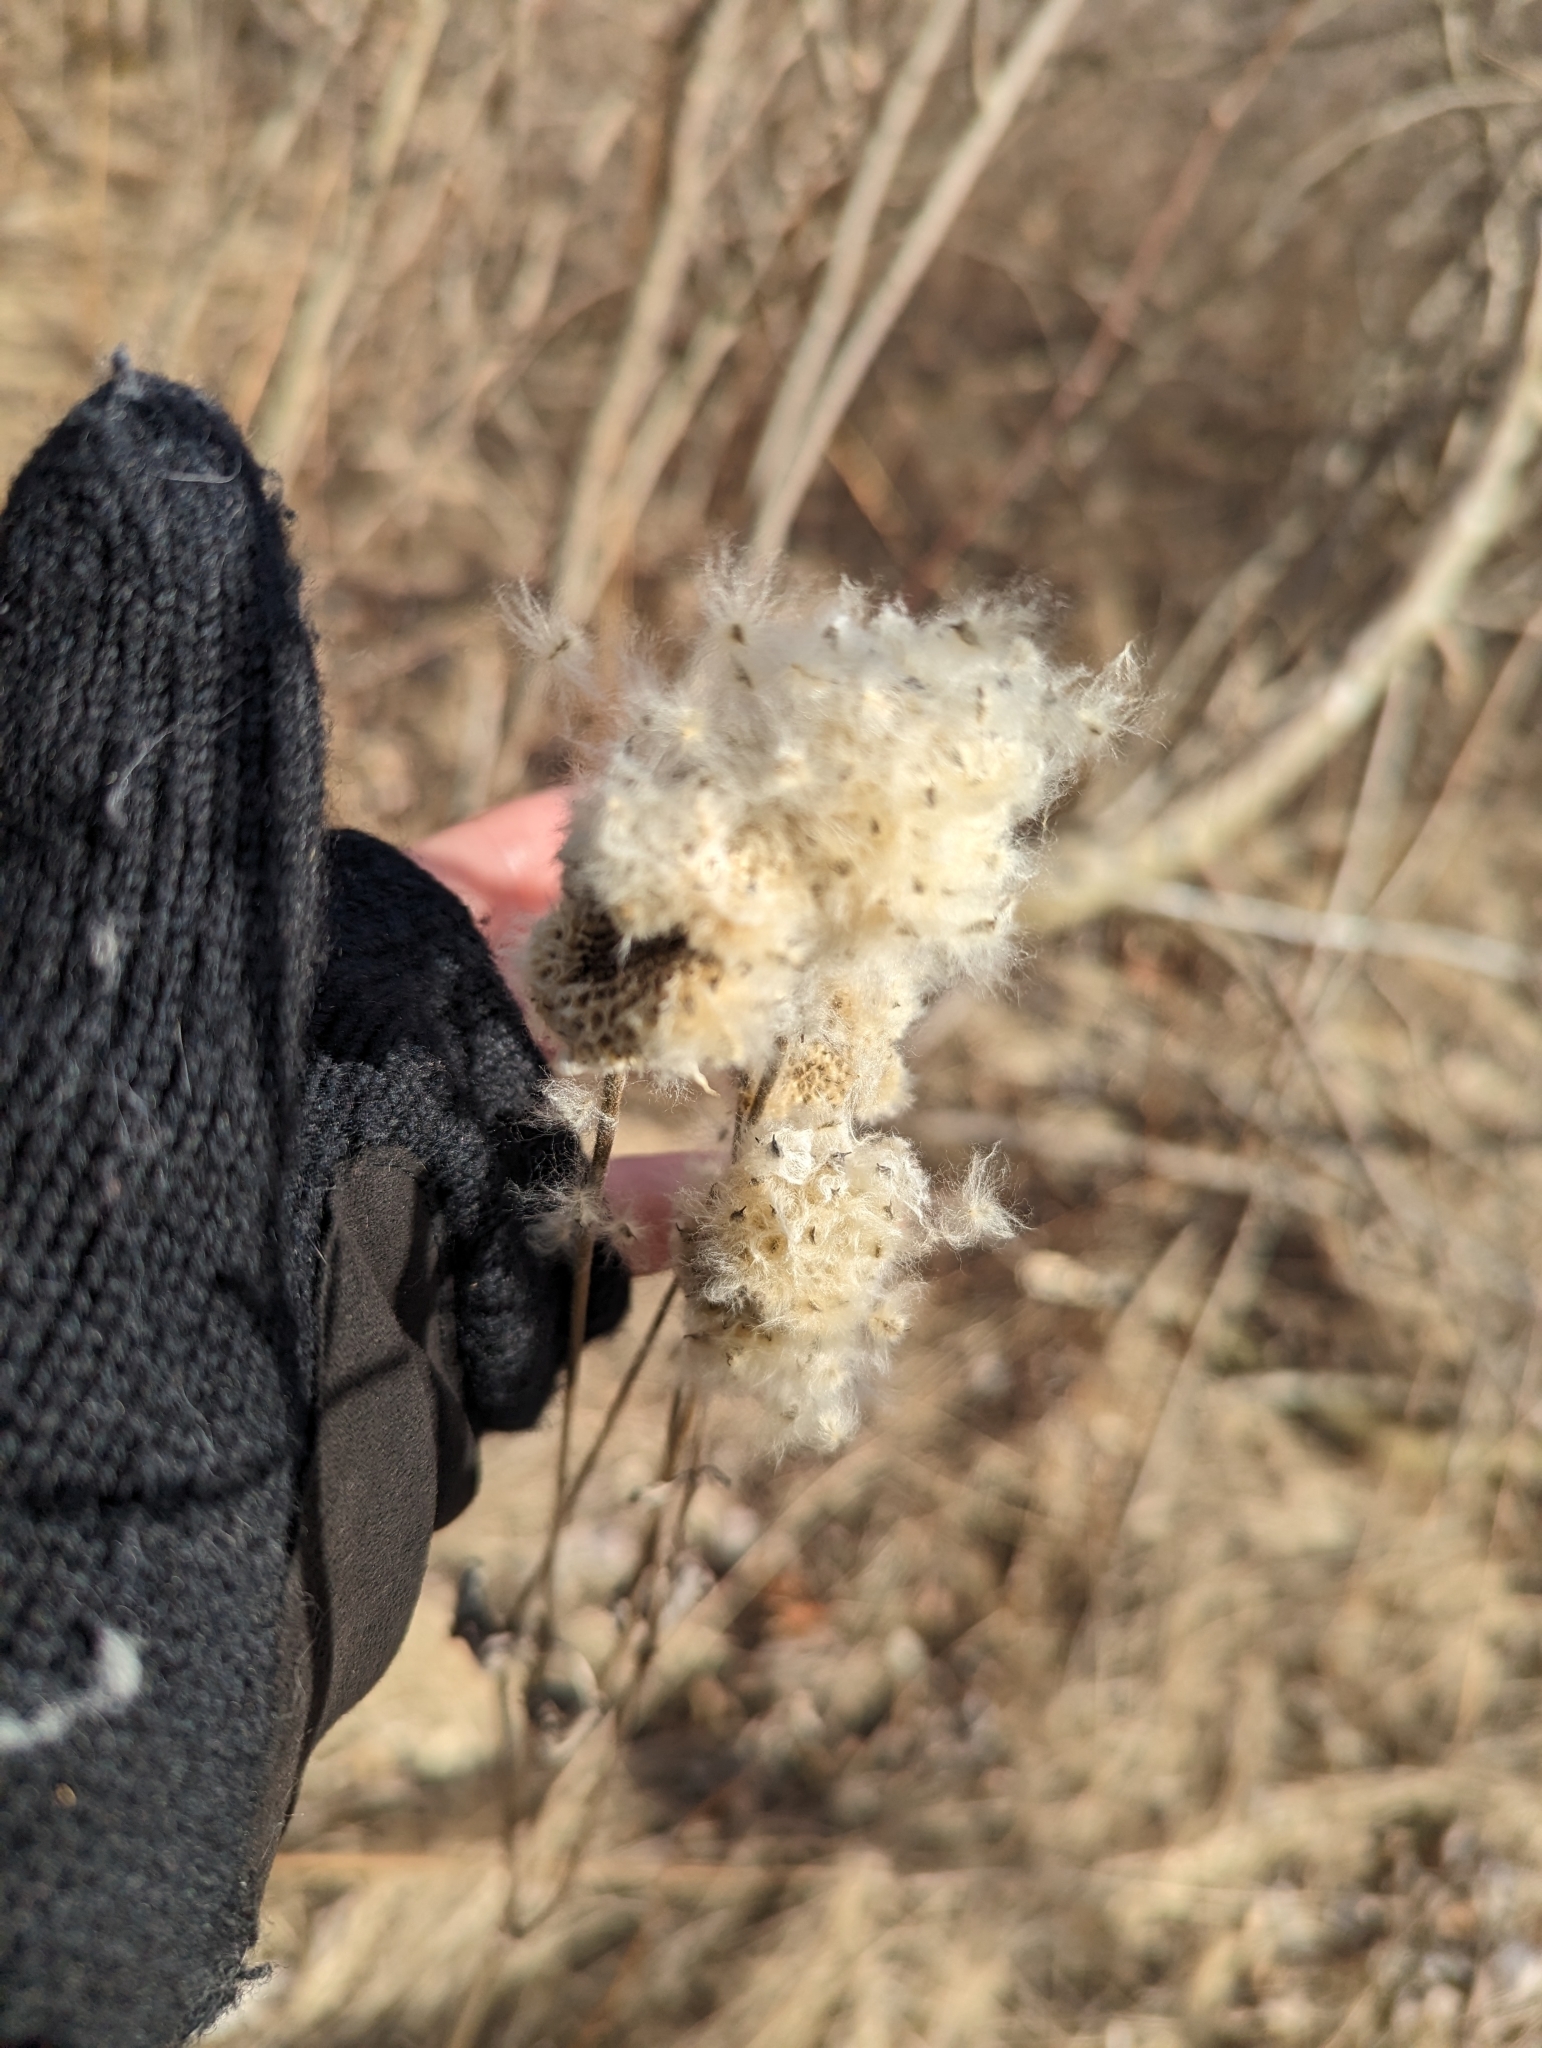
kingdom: Plantae
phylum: Tracheophyta
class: Magnoliopsida
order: Ranunculales
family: Ranunculaceae
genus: Anemone
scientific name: Anemone virginiana
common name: Tall anemone
